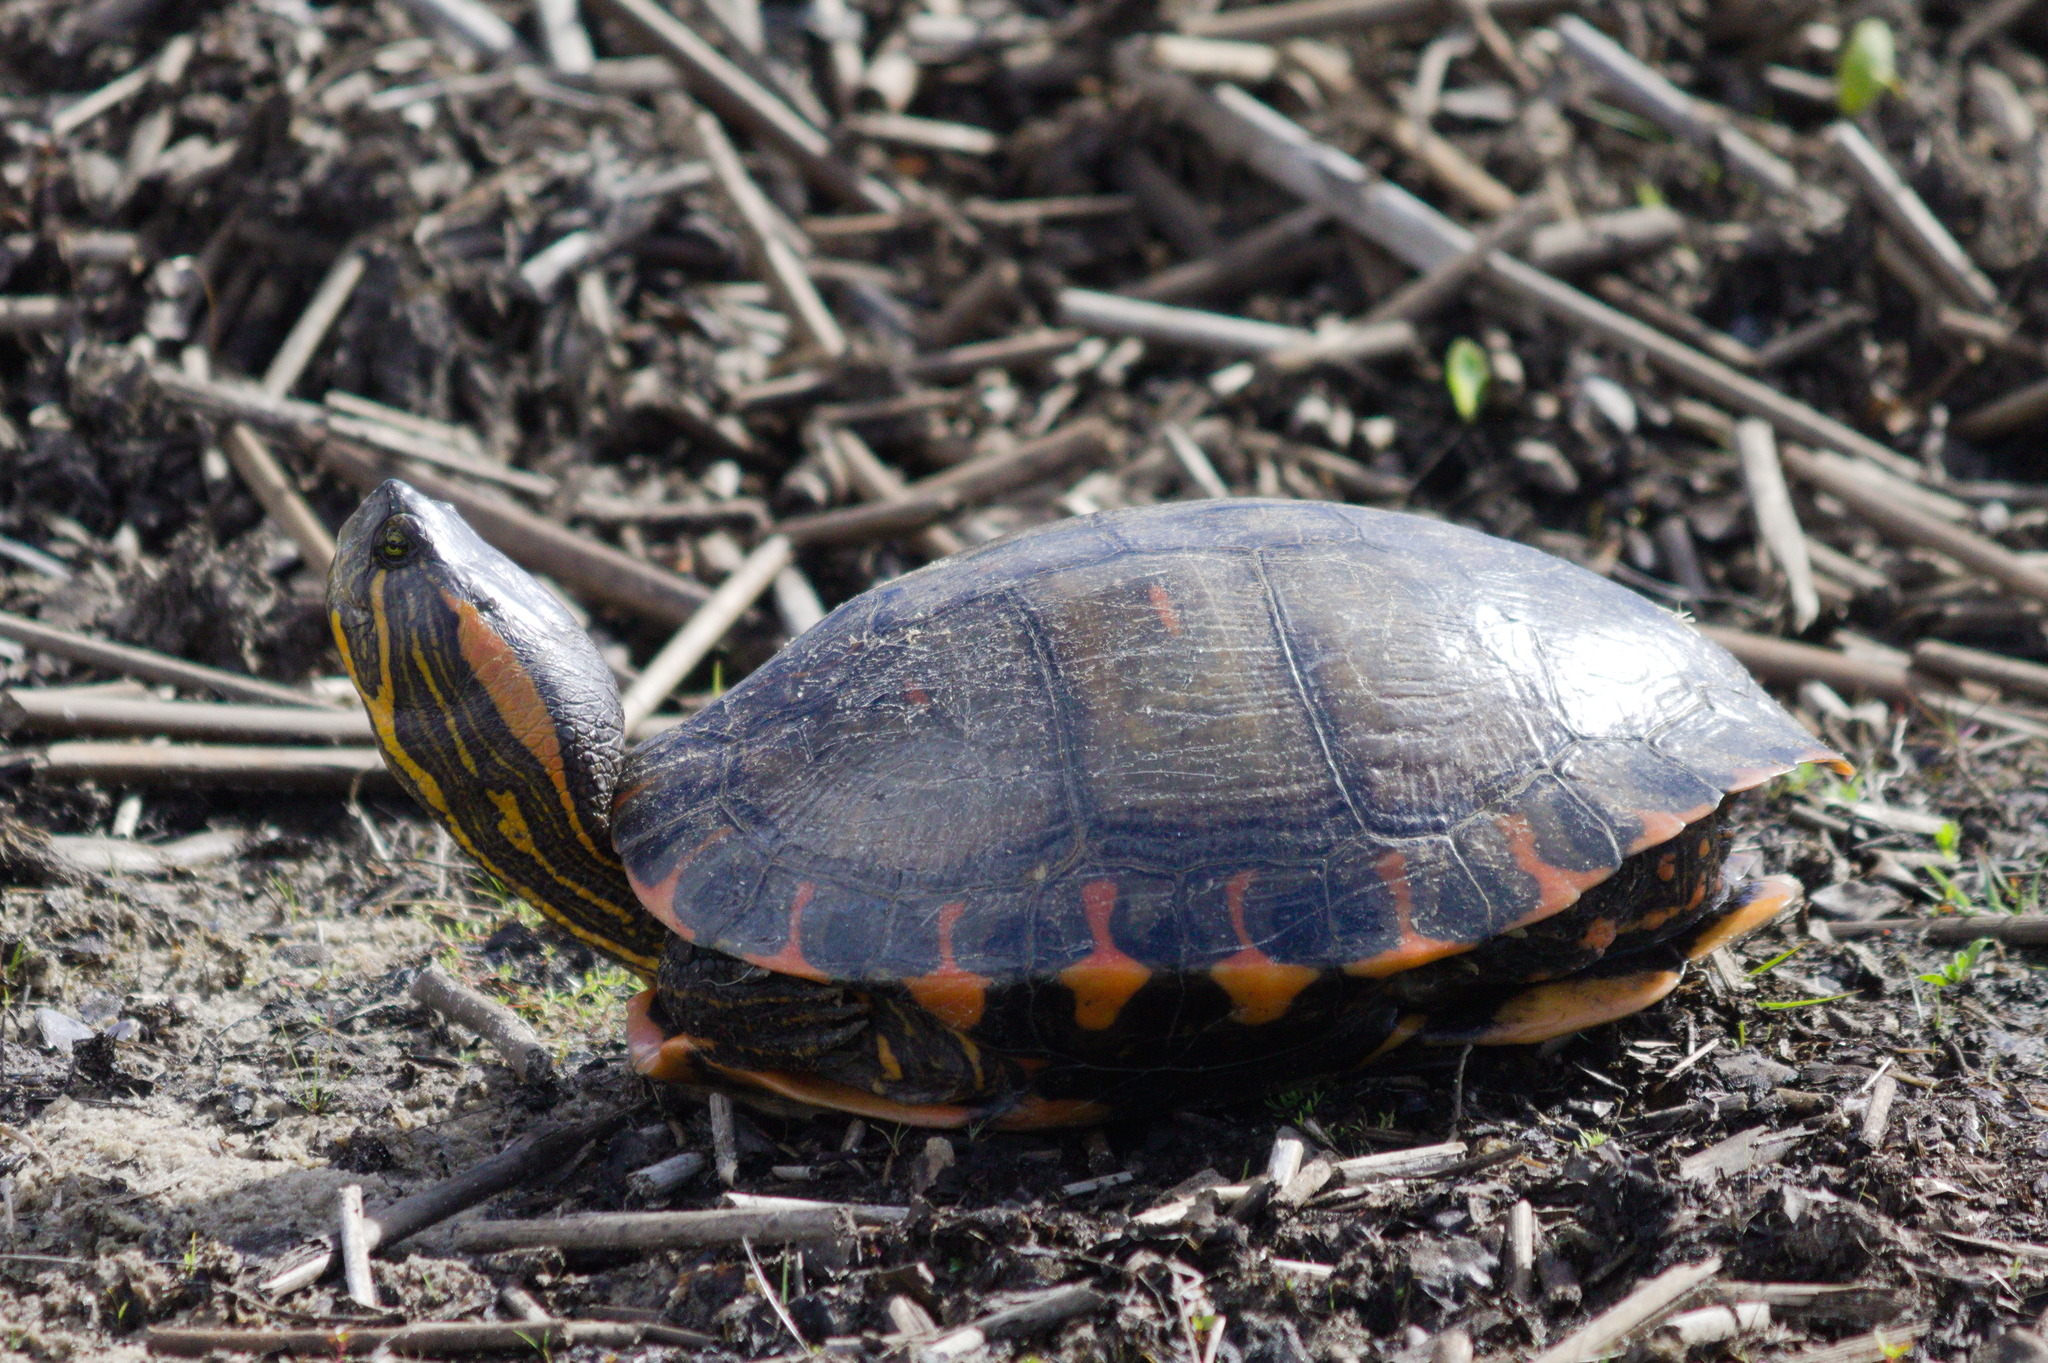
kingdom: Animalia
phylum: Chordata
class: Testudines
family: Emydidae
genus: Trachemys
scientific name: Trachemys dorbigni
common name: Black-bellied slider
